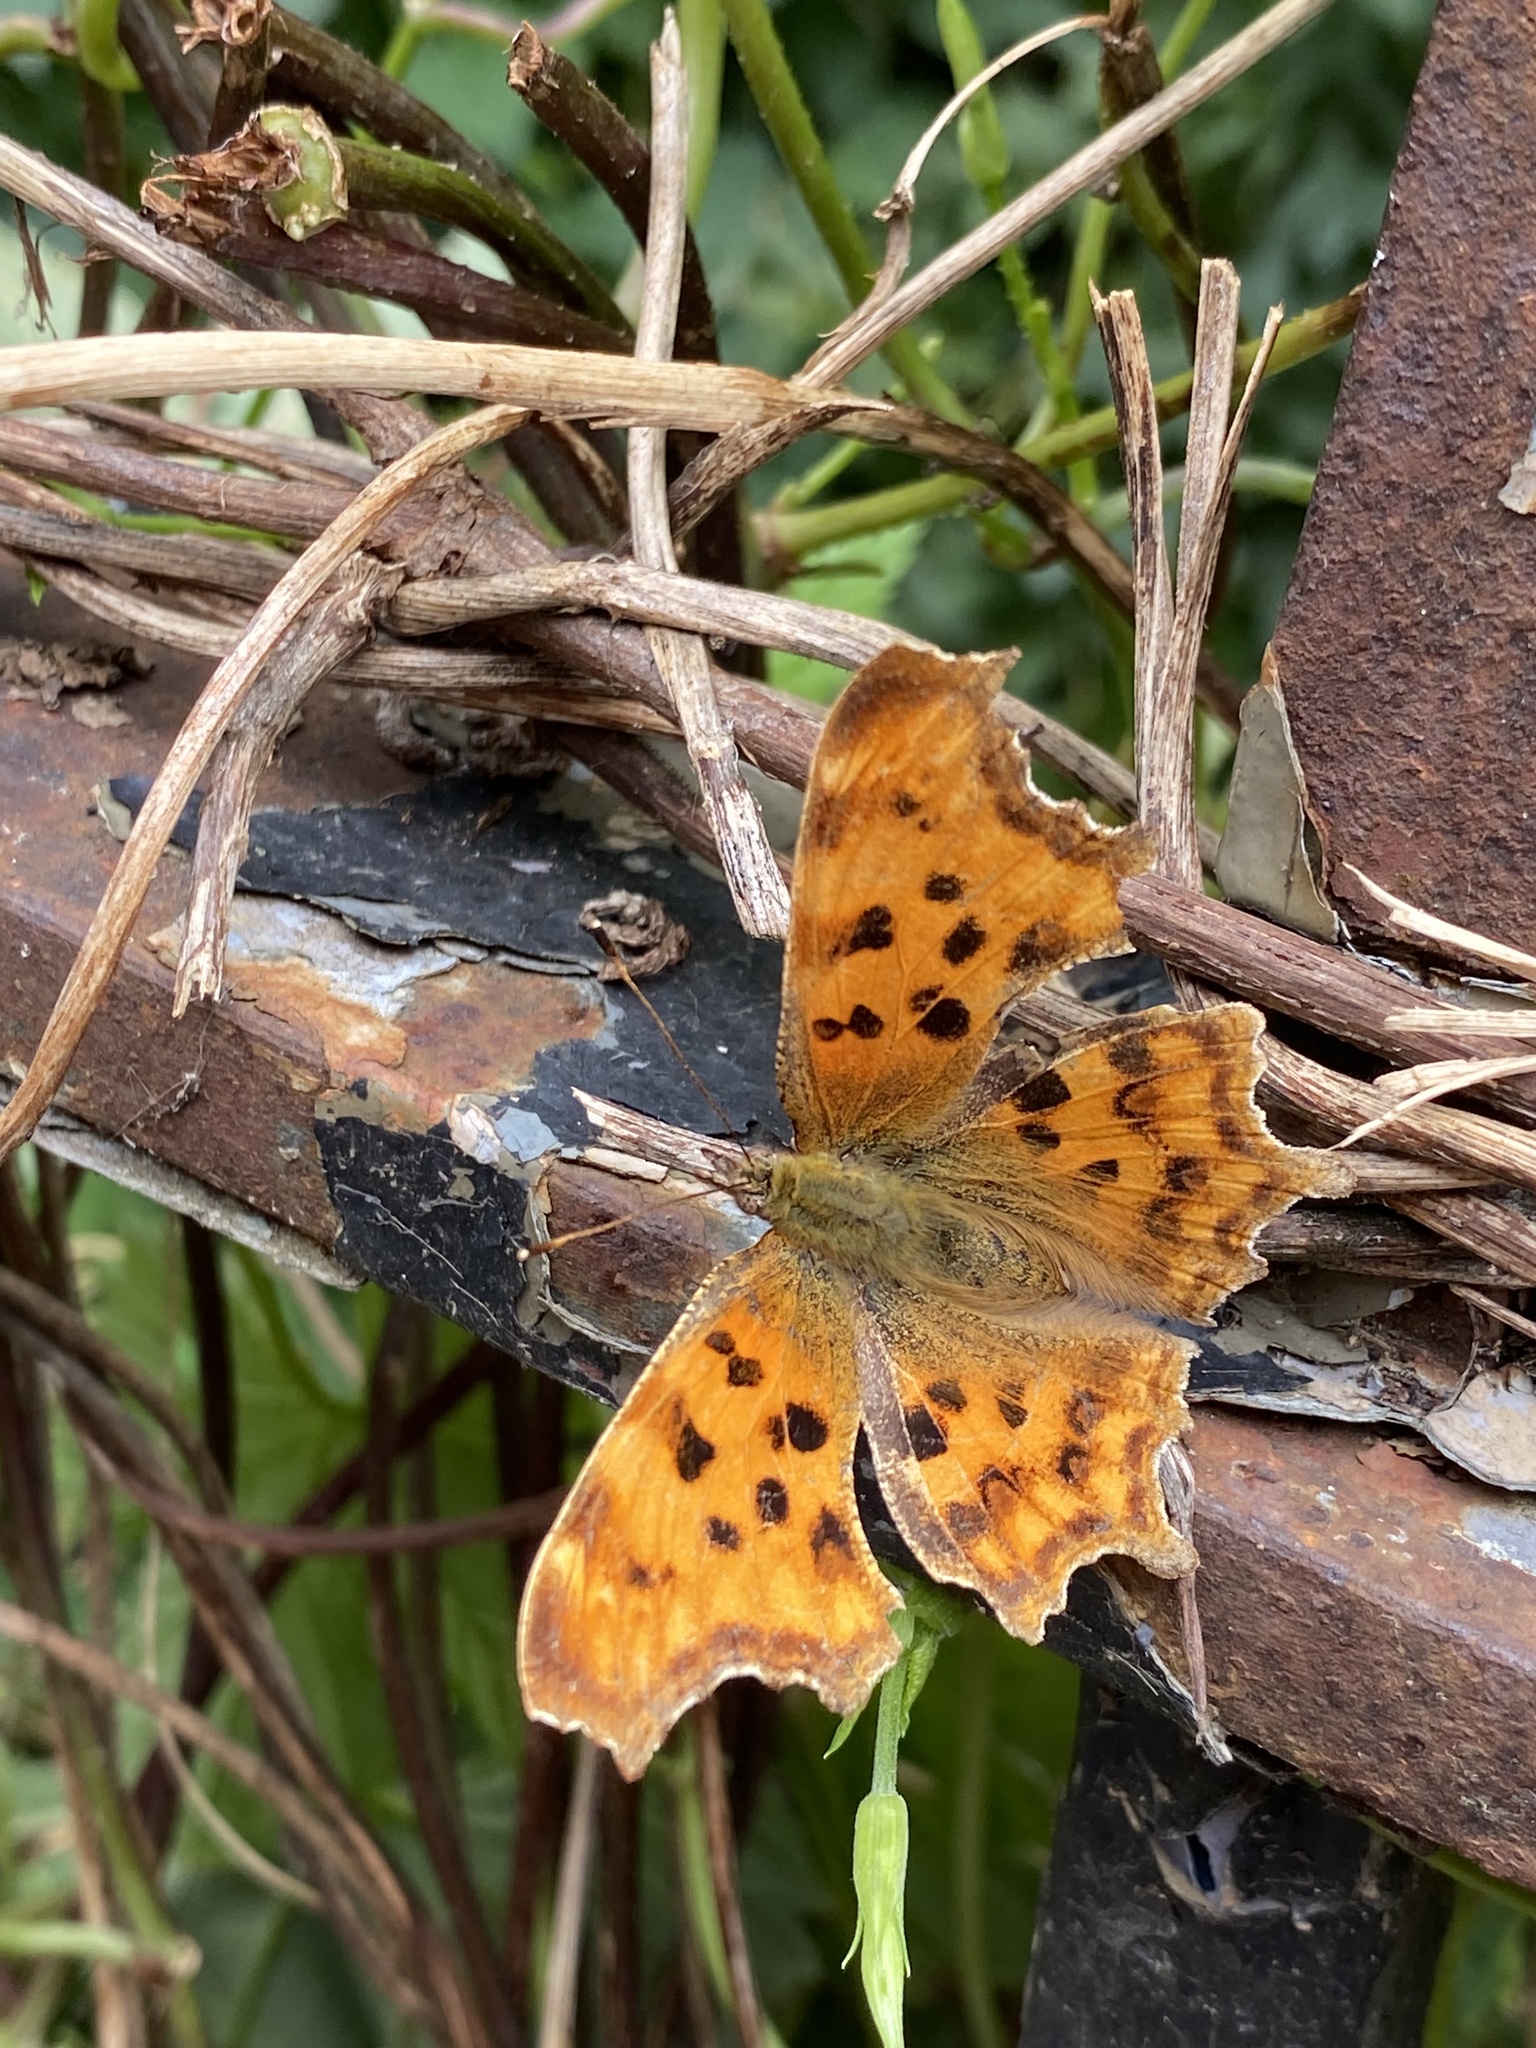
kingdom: Animalia
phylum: Arthropoda
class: Insecta
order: Lepidoptera
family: Nymphalidae
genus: Polygonia
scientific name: Polygonia c-album
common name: Comma
